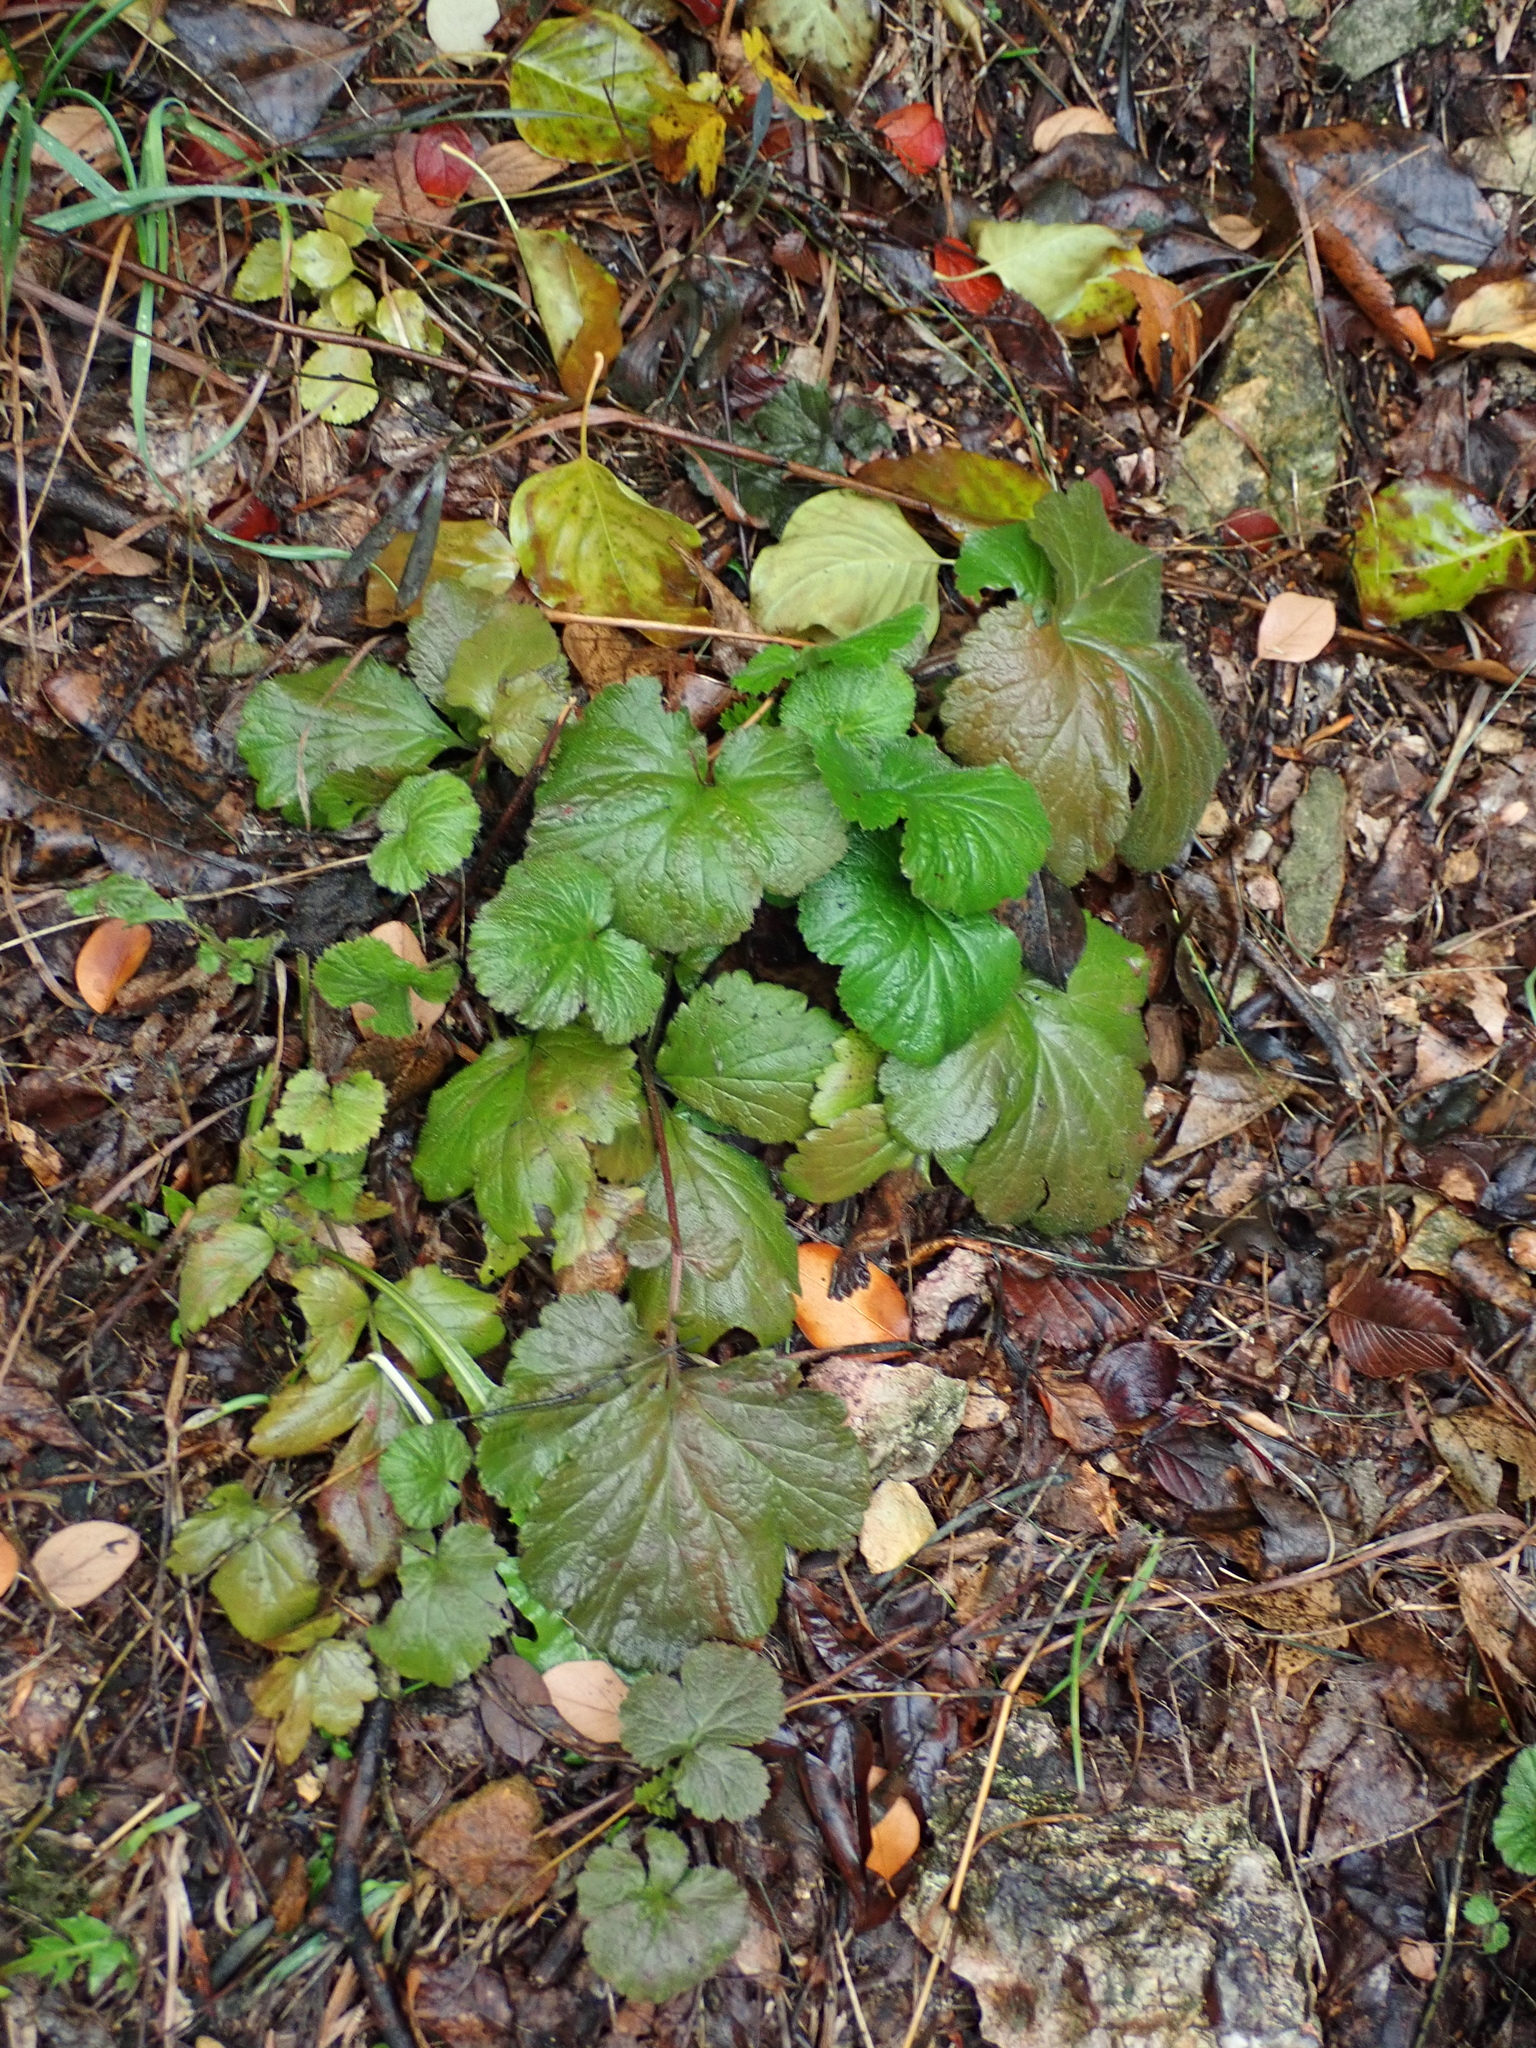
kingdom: Plantae
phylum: Tracheophyta
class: Magnoliopsida
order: Rosales
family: Rosaceae
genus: Geum
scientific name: Geum urbanum
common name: Wood avens
